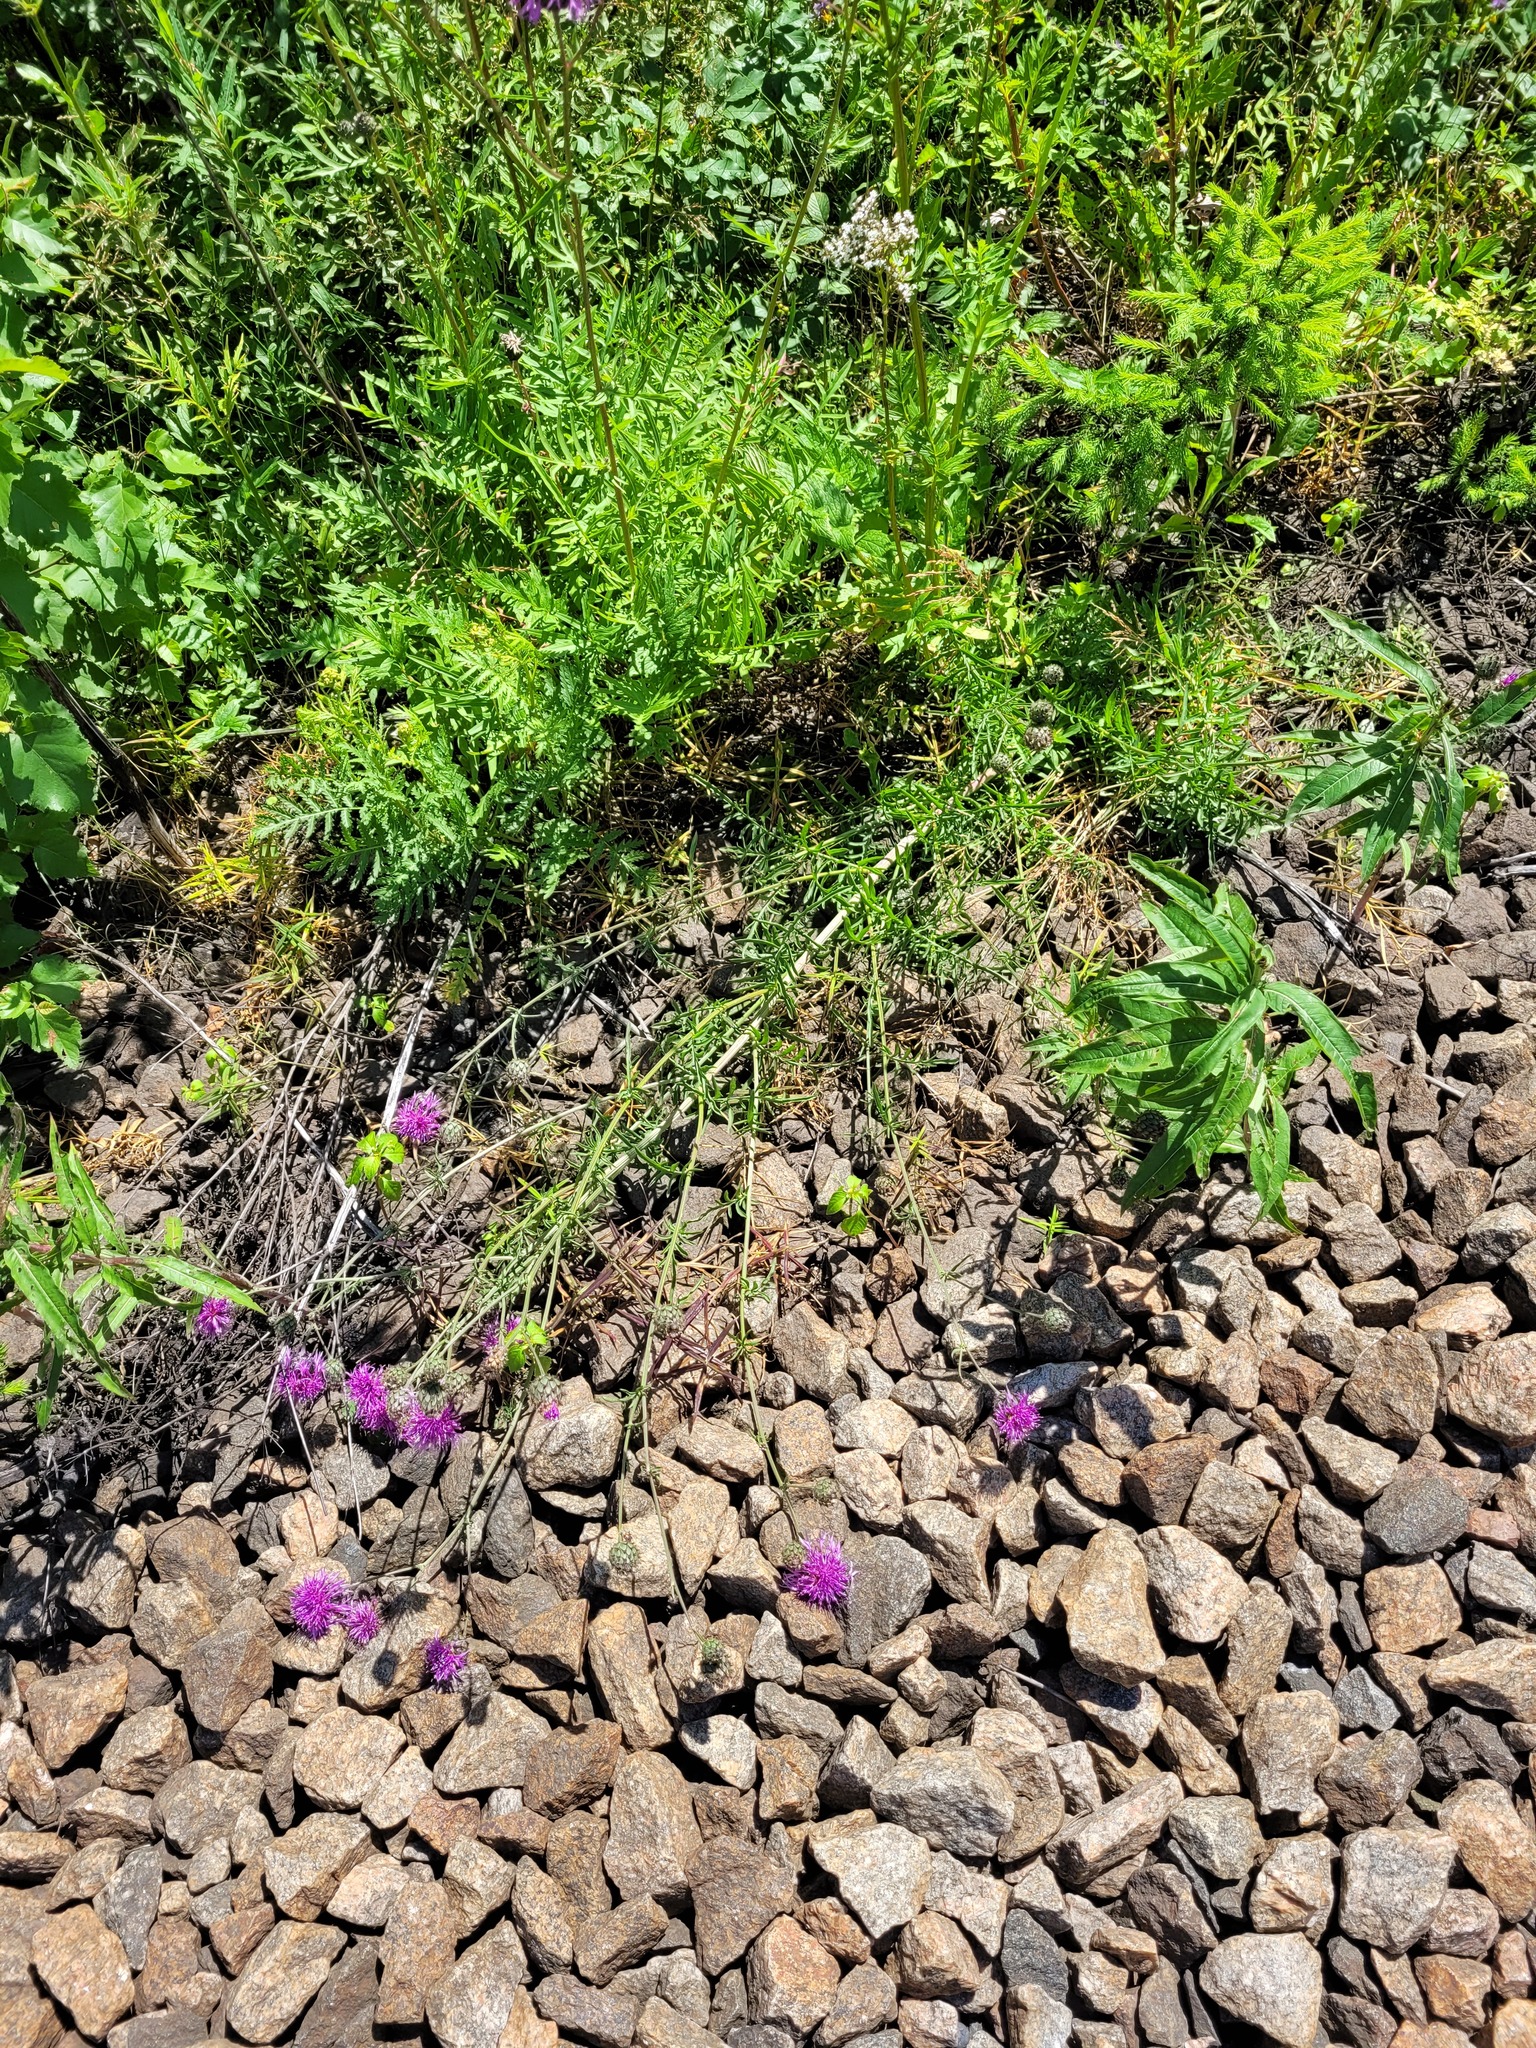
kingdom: Plantae
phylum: Tracheophyta
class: Magnoliopsida
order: Asterales
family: Asteraceae
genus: Centaurea
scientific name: Centaurea scabiosa
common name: Greater knapweed
